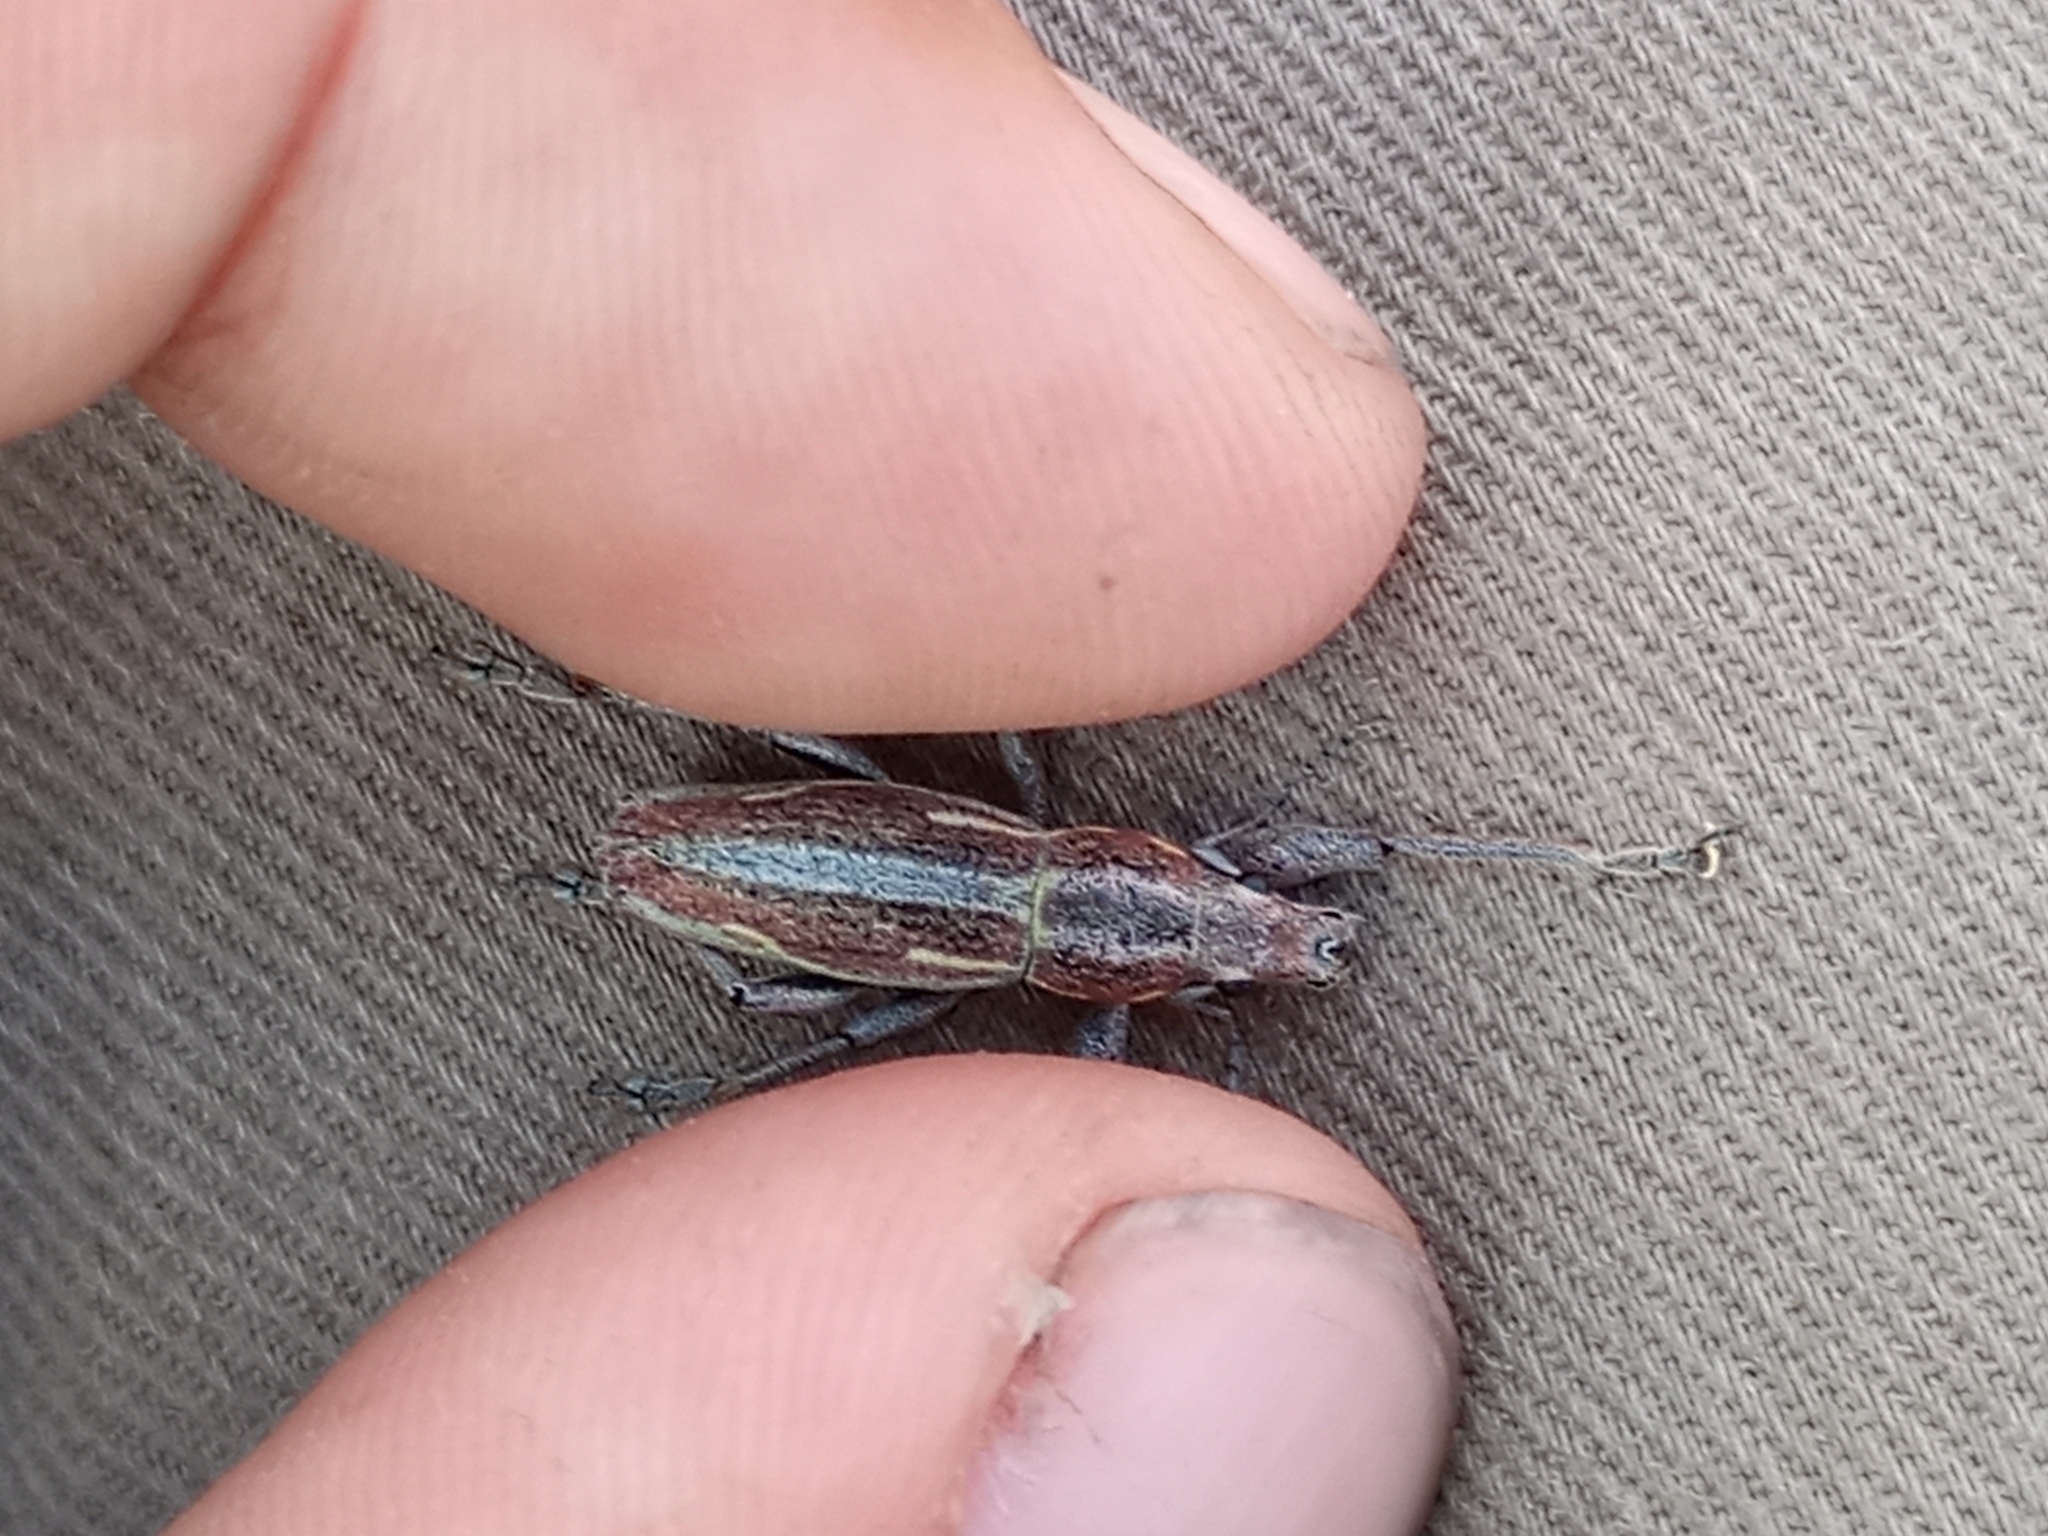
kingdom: Animalia
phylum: Arthropoda
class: Insecta
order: Coleoptera
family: Curculionidae
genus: Naupactus
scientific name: Naupactus xanthographus
